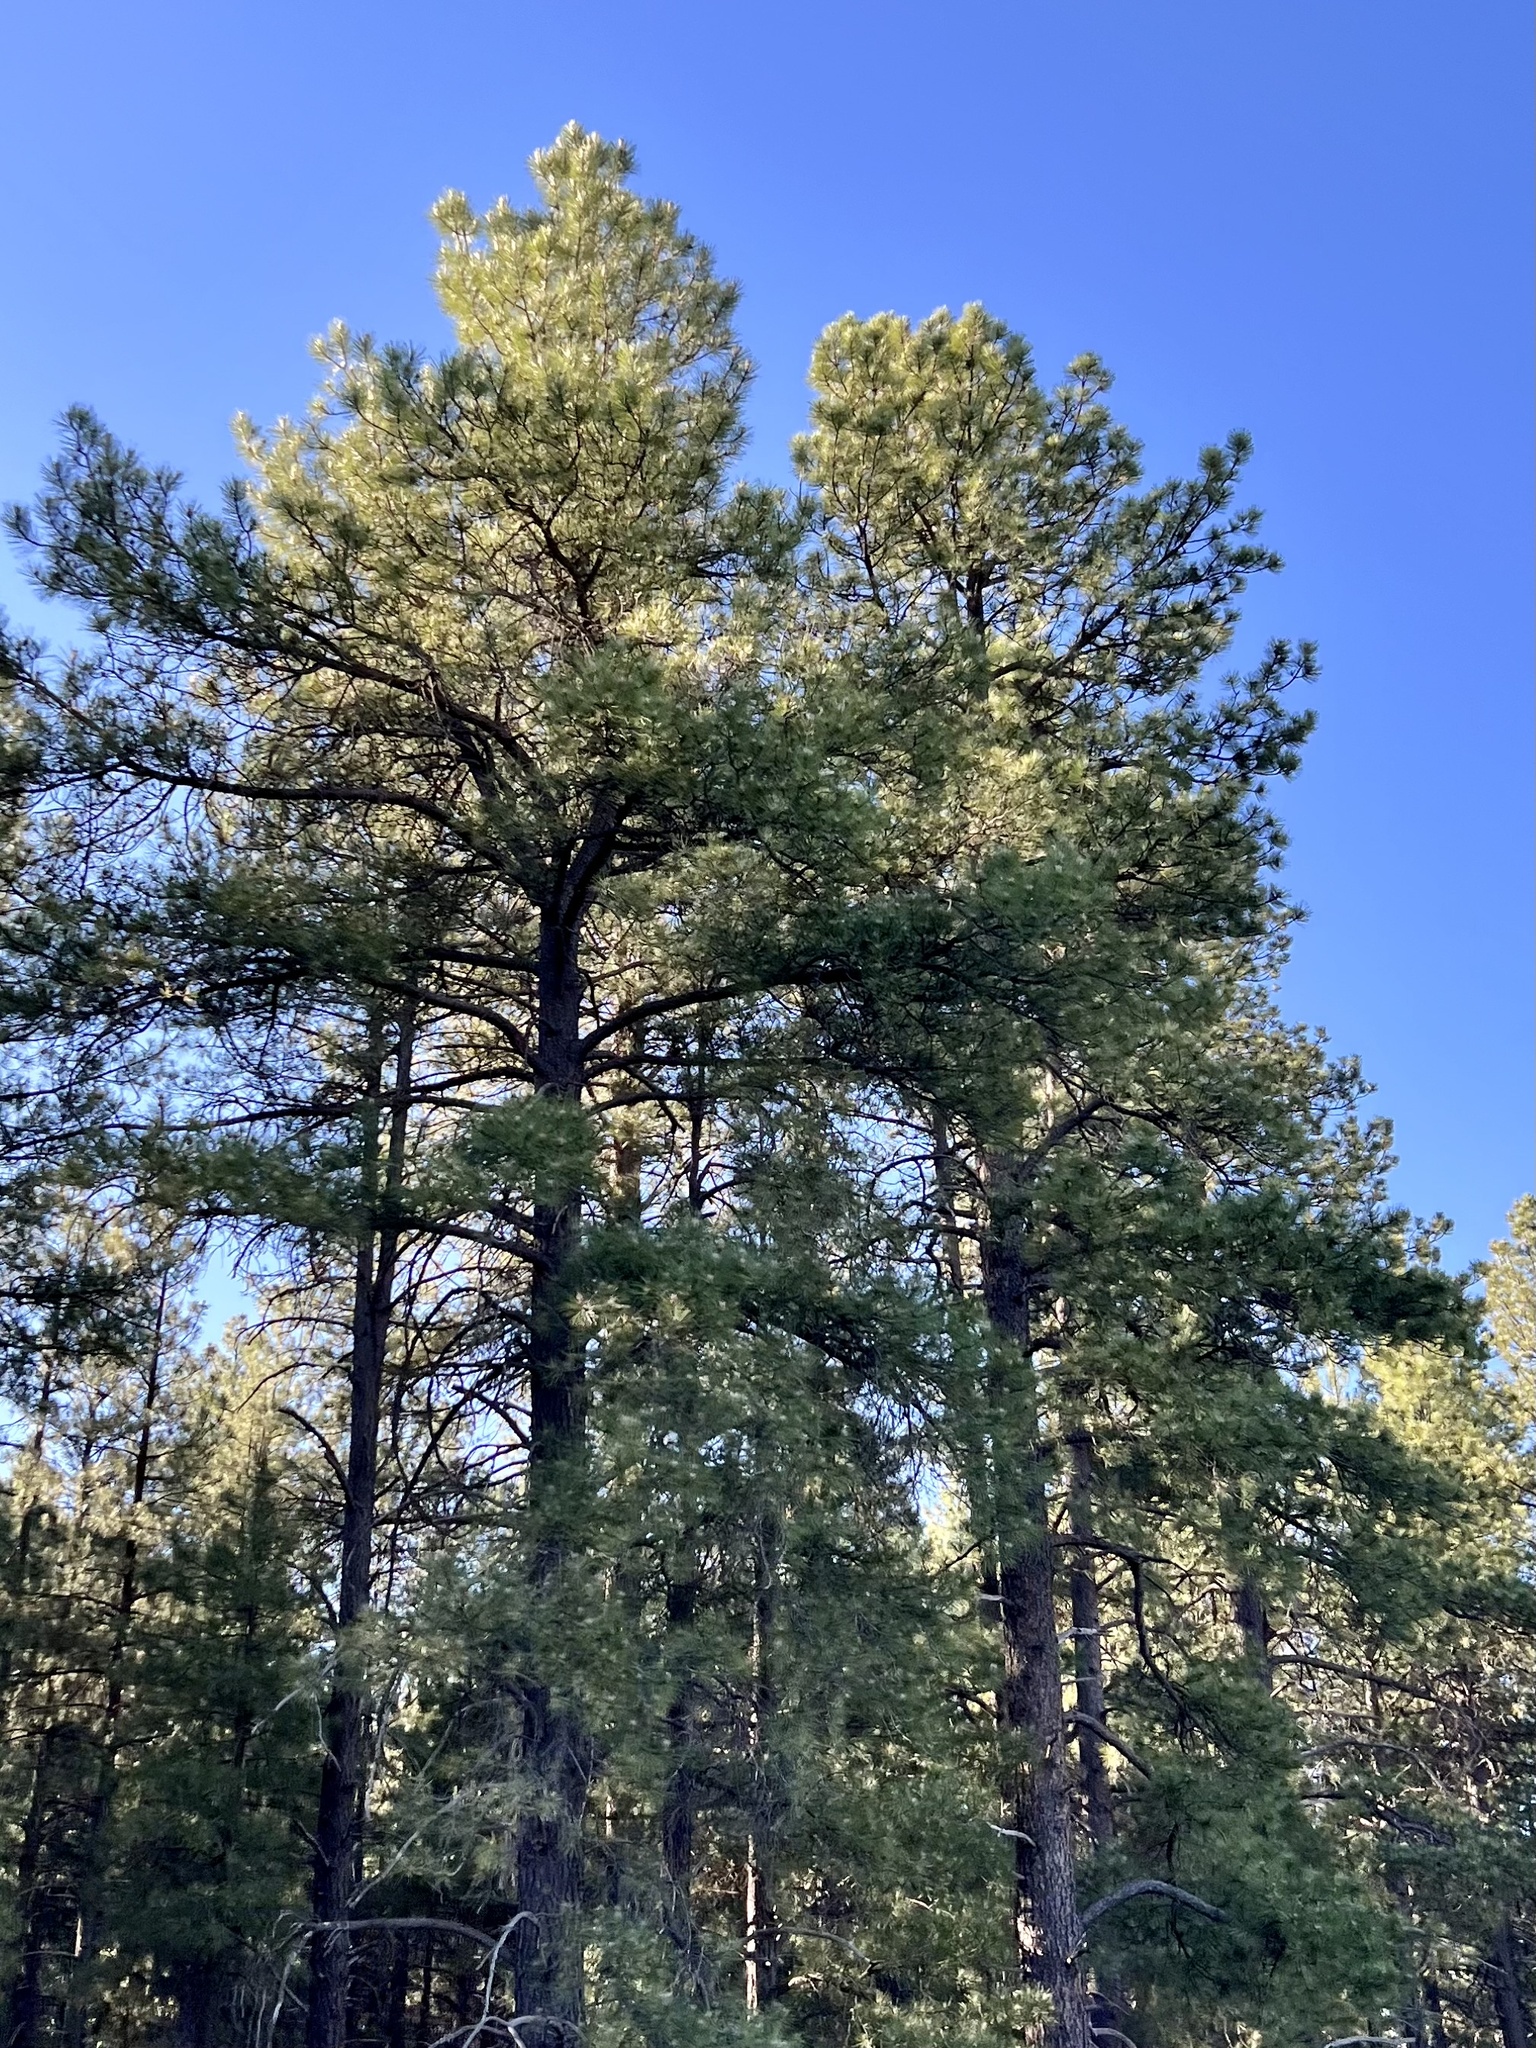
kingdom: Plantae
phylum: Tracheophyta
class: Pinopsida
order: Pinales
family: Pinaceae
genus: Pinus
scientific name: Pinus ponderosa
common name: Western yellow-pine
